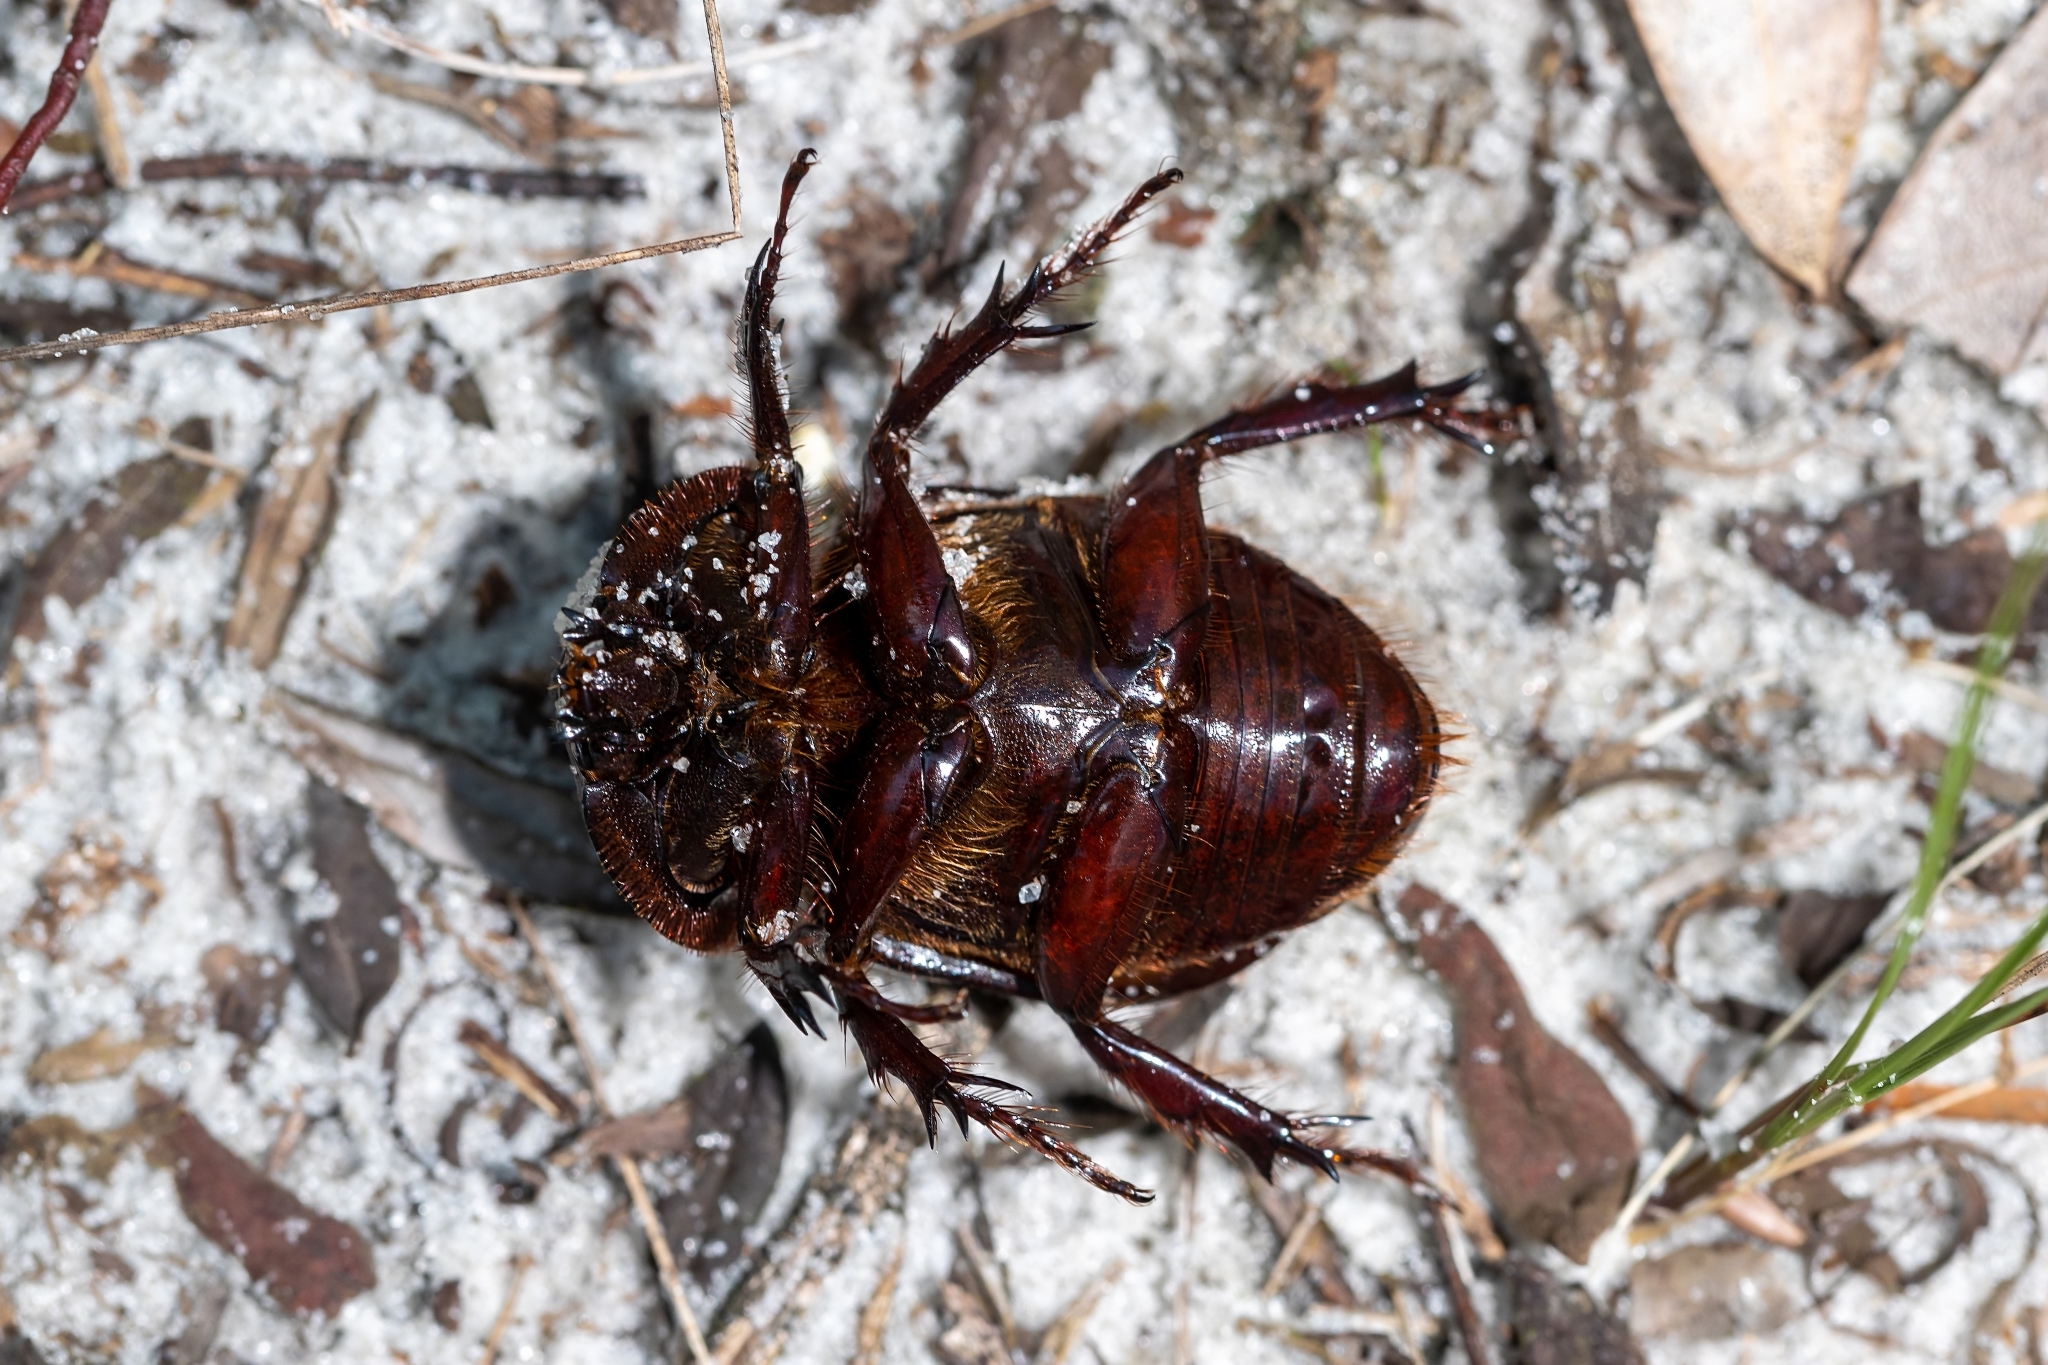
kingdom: Animalia
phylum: Arthropoda
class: Insecta
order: Coleoptera
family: Scarabaeidae
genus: Strategus
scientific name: Strategus antaeus
